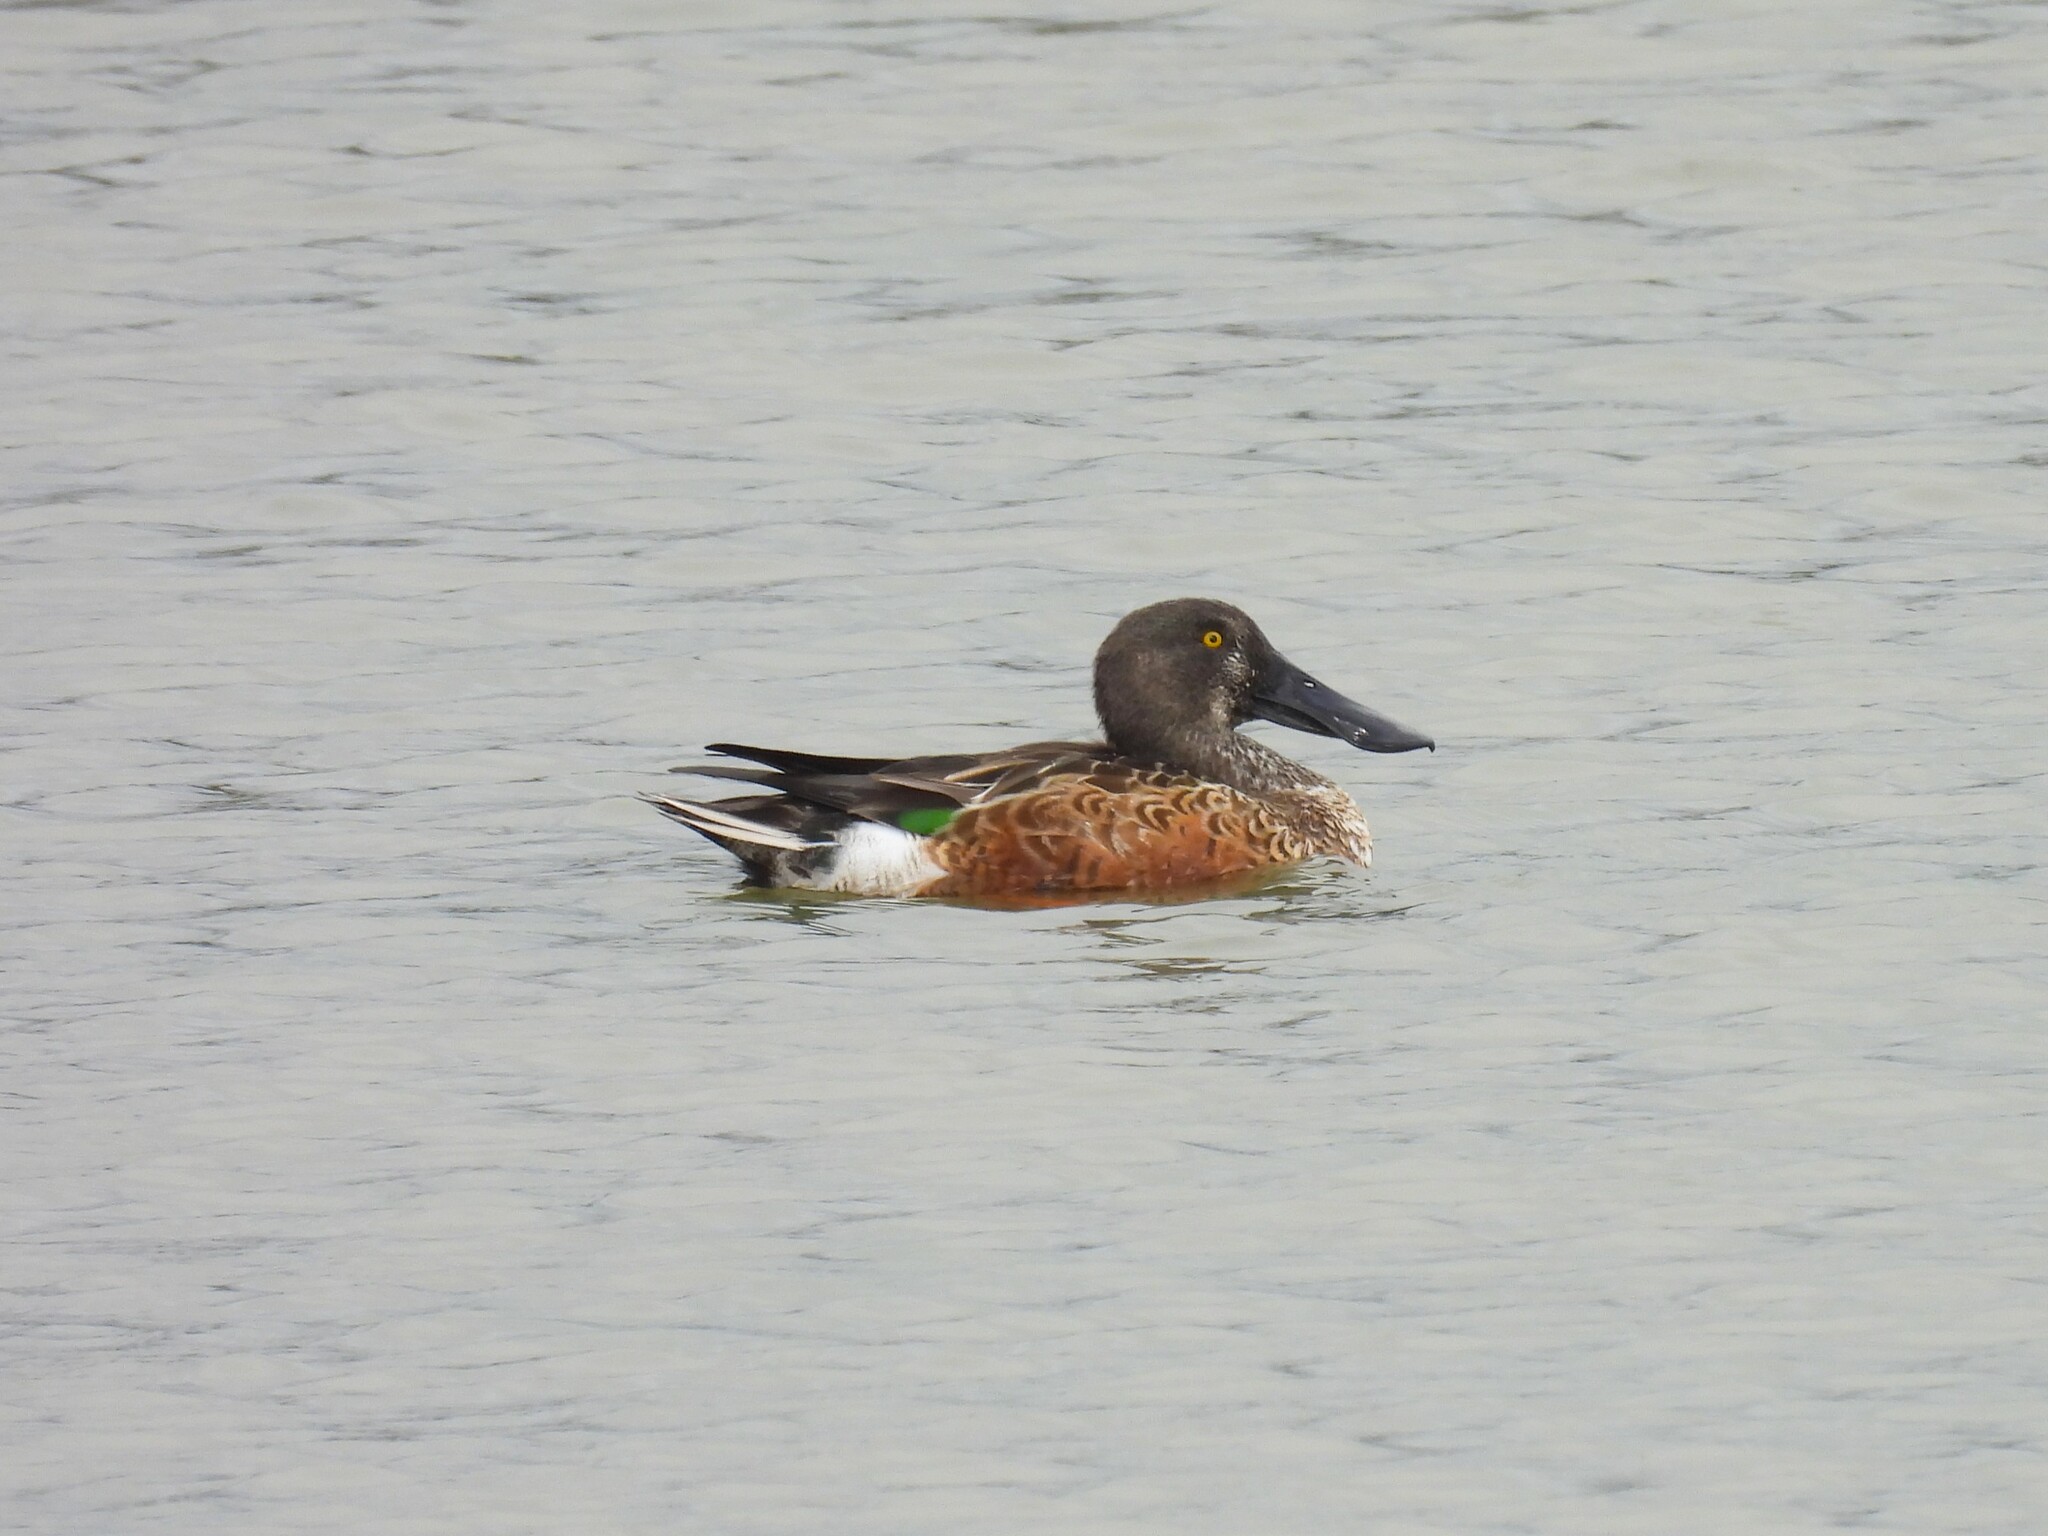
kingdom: Animalia
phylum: Chordata
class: Aves
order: Anseriformes
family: Anatidae
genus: Spatula
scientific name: Spatula clypeata
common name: Northern shoveler
